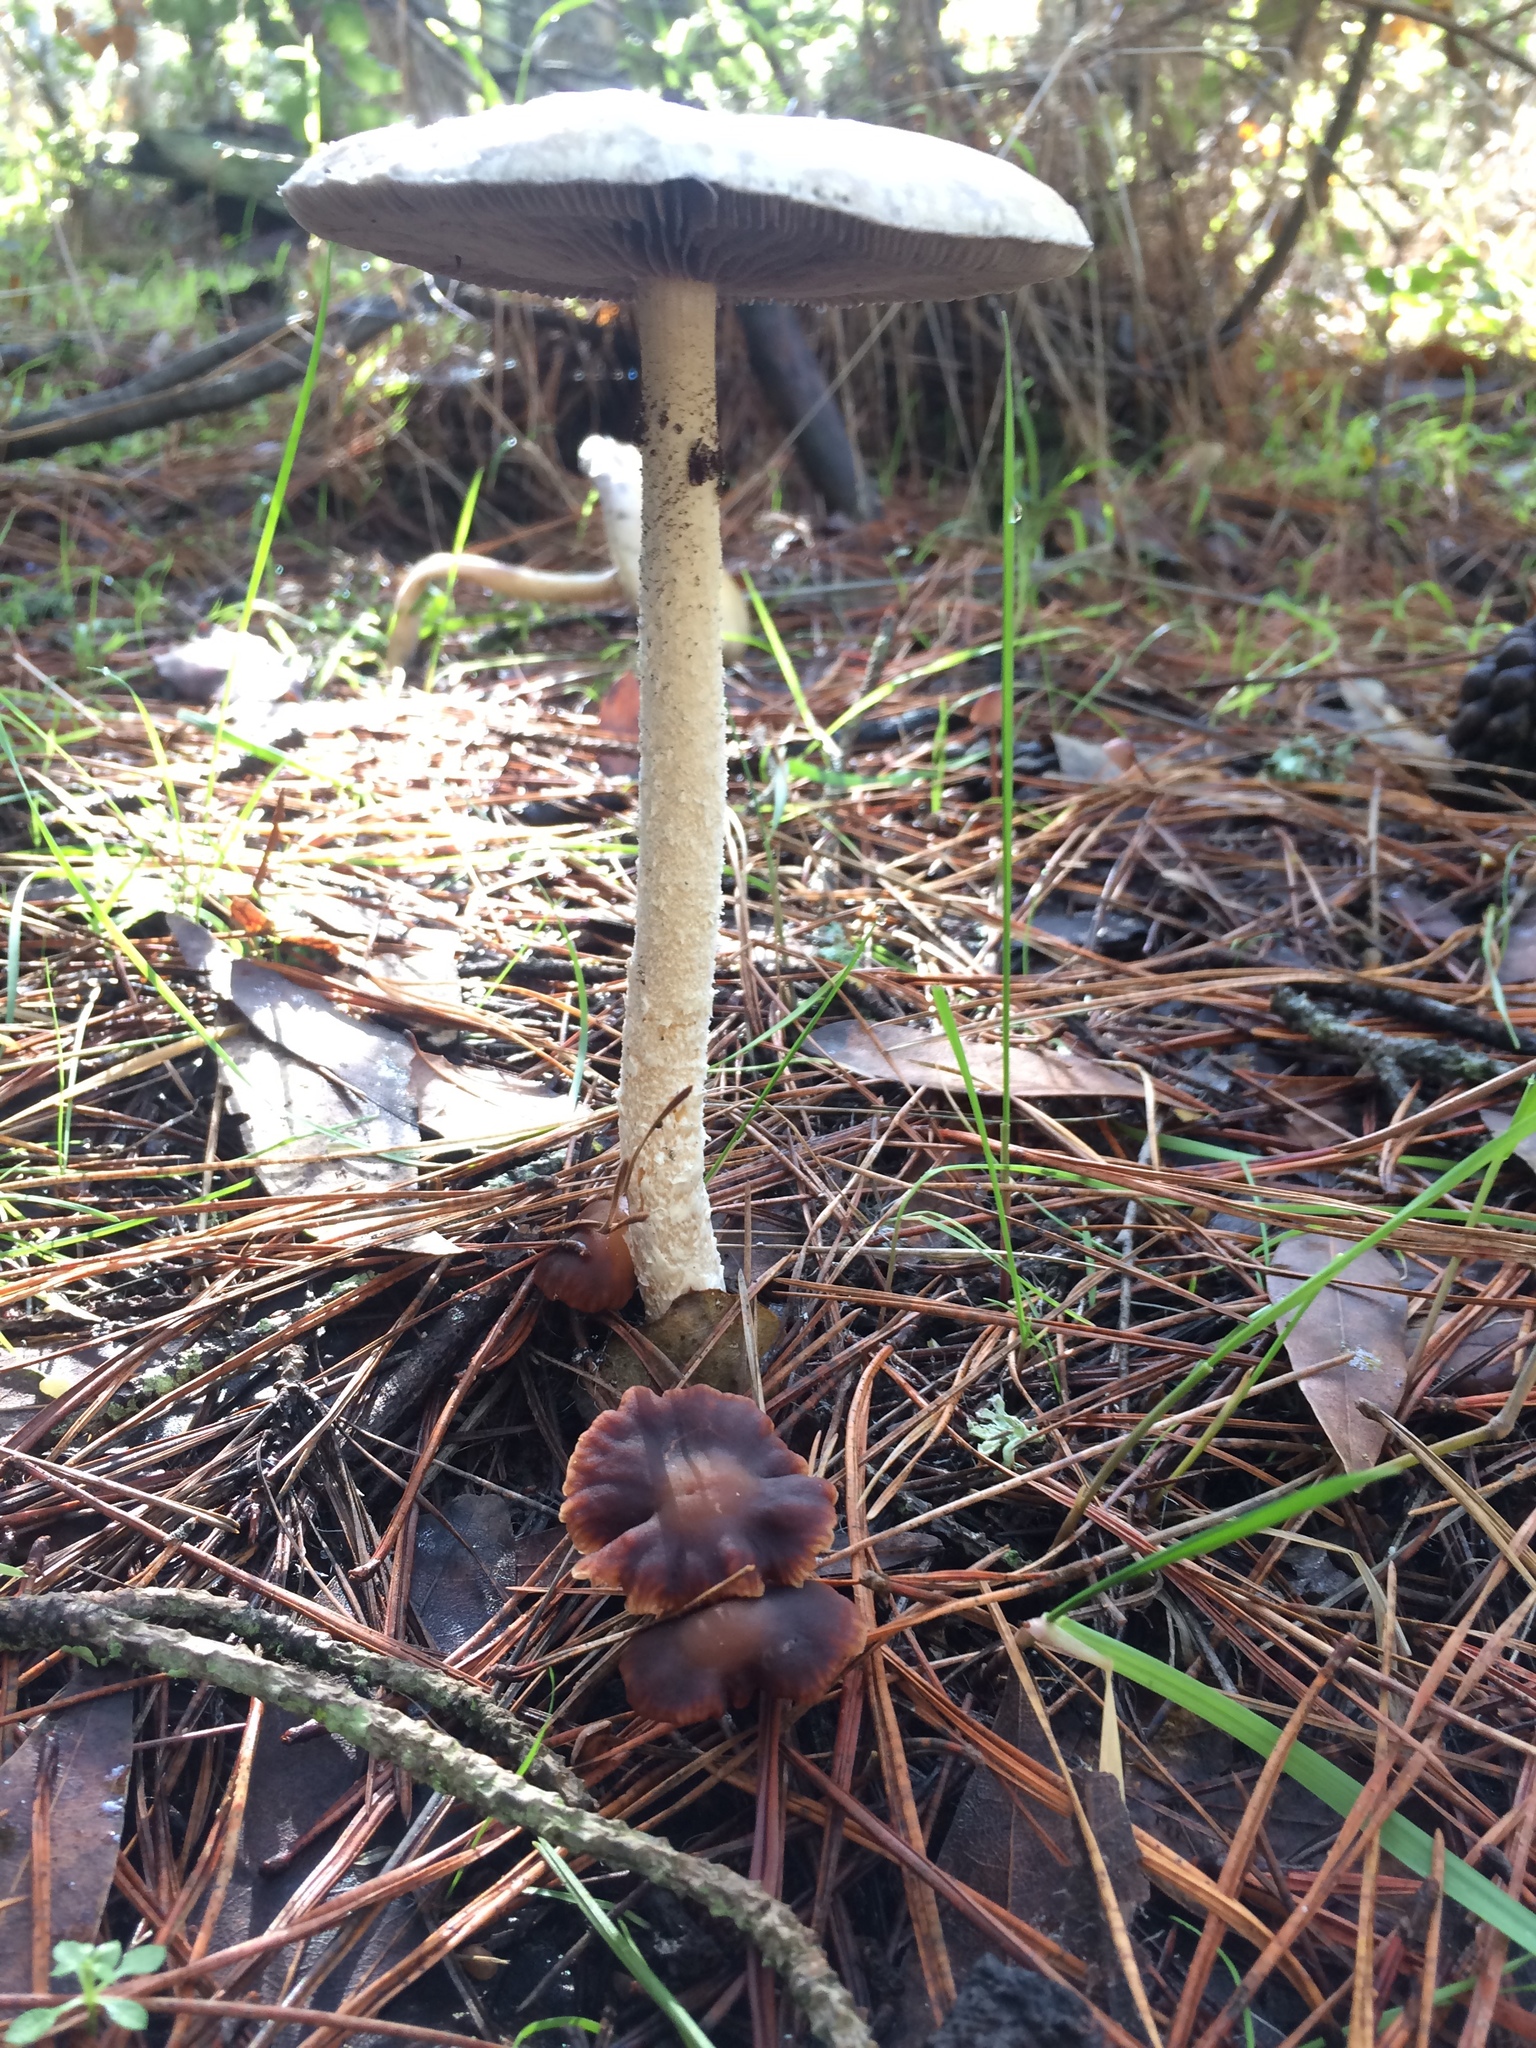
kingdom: Fungi
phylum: Basidiomycota
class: Agaricomycetes
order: Agaricales
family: Strophariaceae
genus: Stropharia
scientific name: Stropharia ambigua
